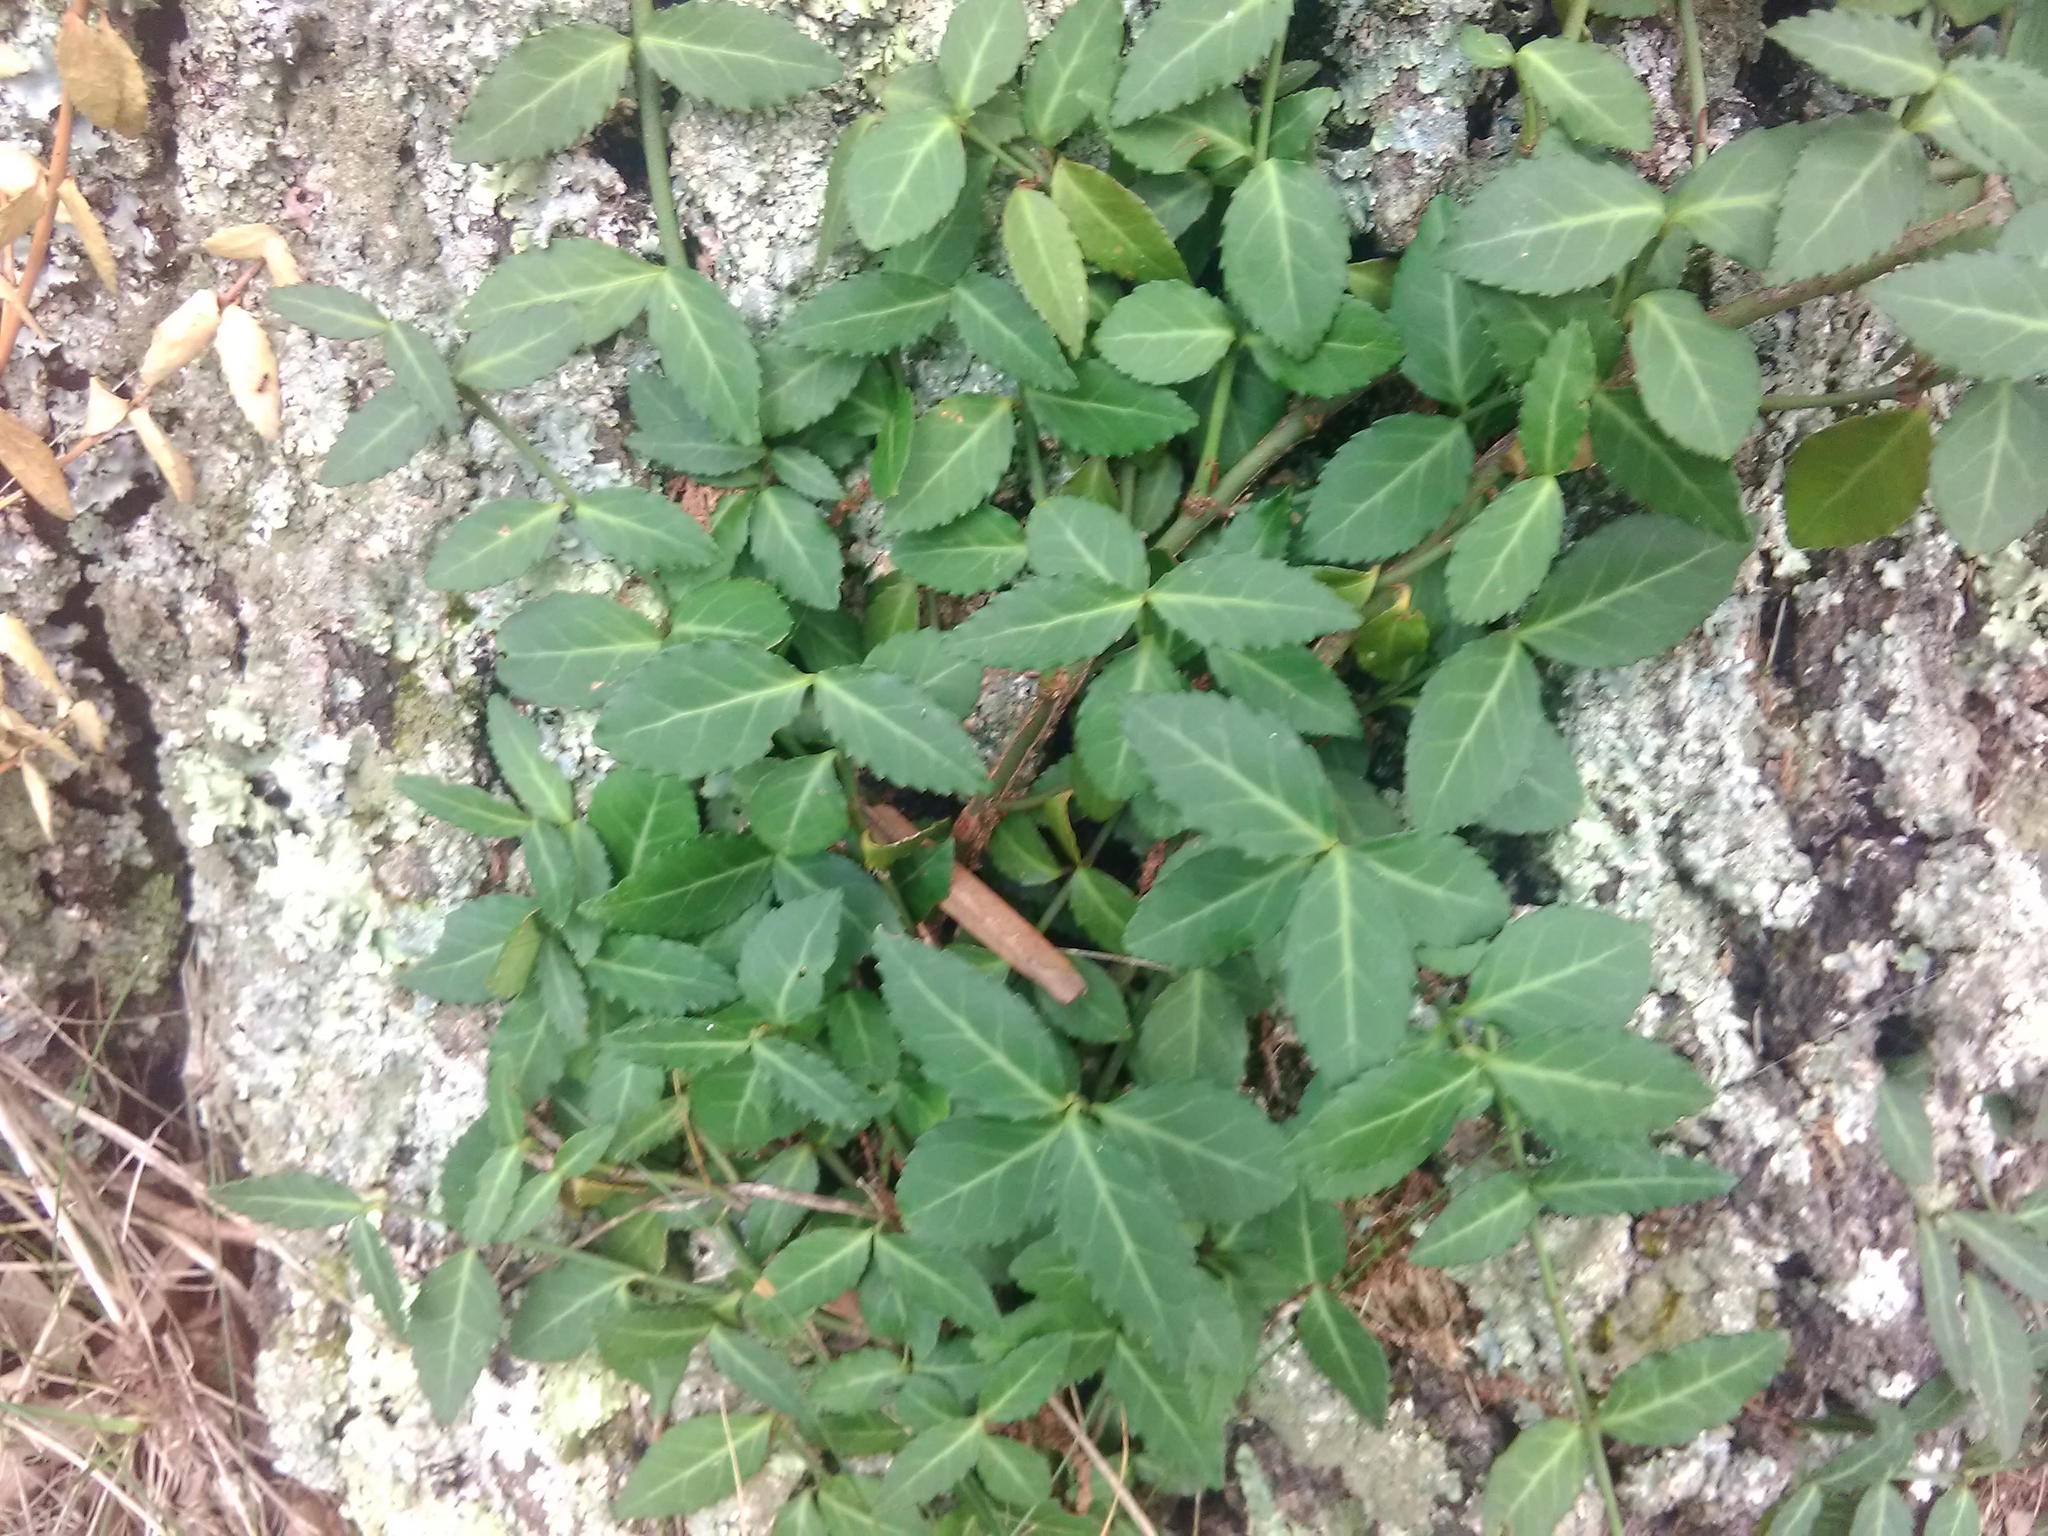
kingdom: Plantae
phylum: Tracheophyta
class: Magnoliopsida
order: Celastrales
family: Celastraceae
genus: Euonymus
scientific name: Euonymus fortunei
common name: Climbing euonymus
